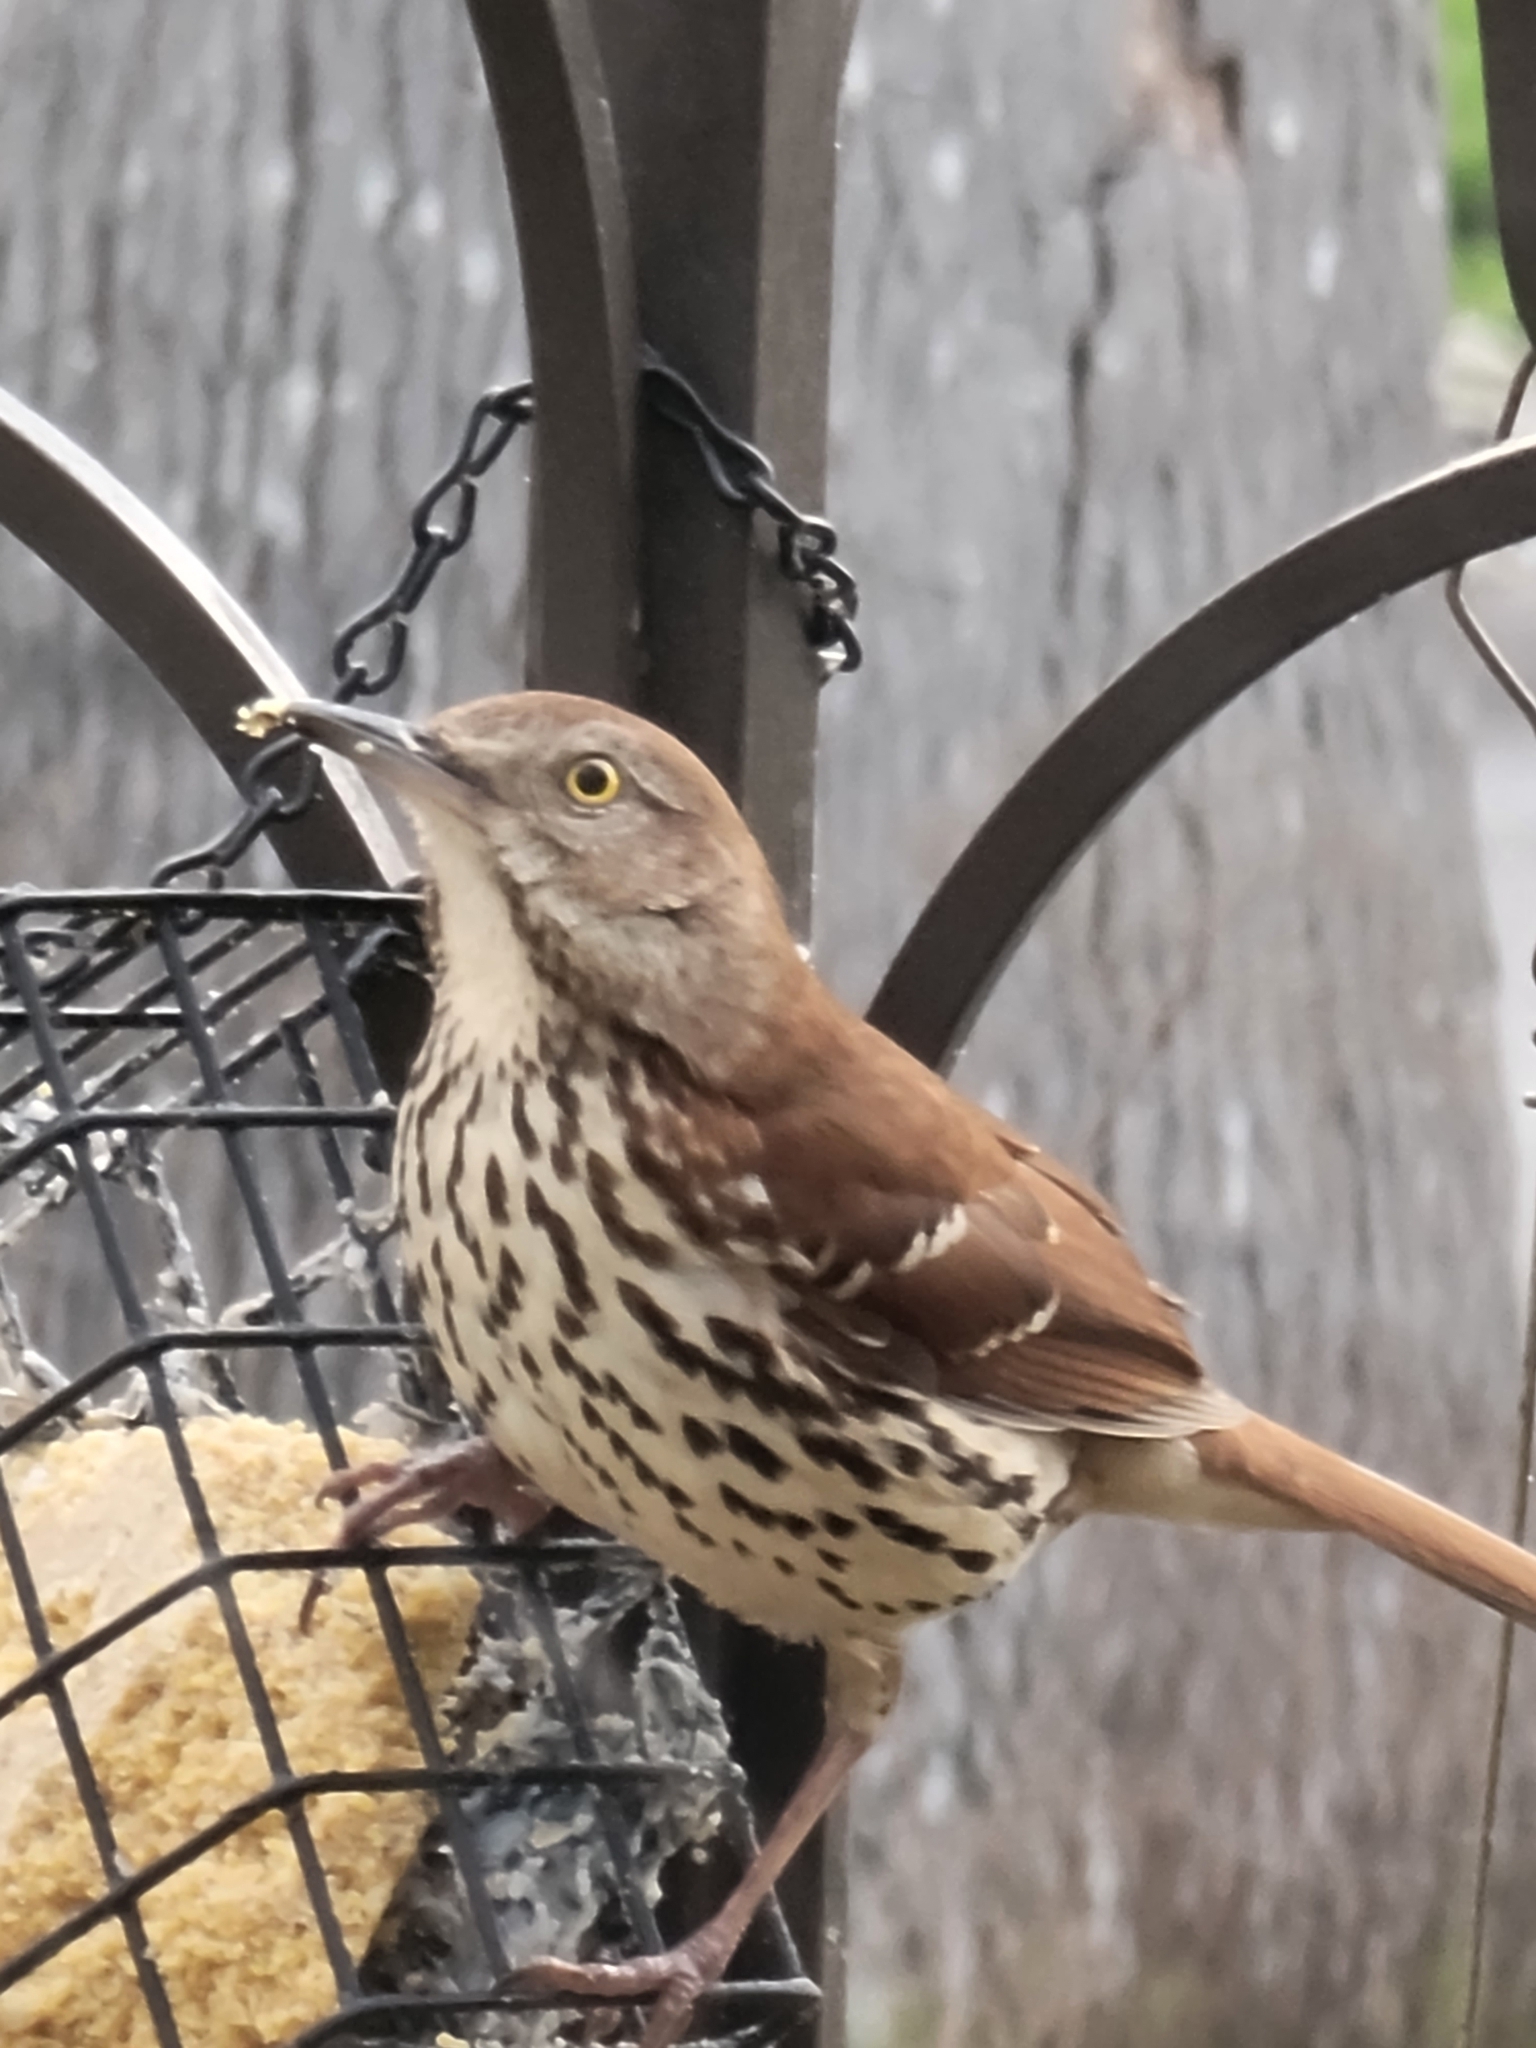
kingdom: Animalia
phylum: Chordata
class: Aves
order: Passeriformes
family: Mimidae
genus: Toxostoma
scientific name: Toxostoma rufum
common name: Brown thrasher
